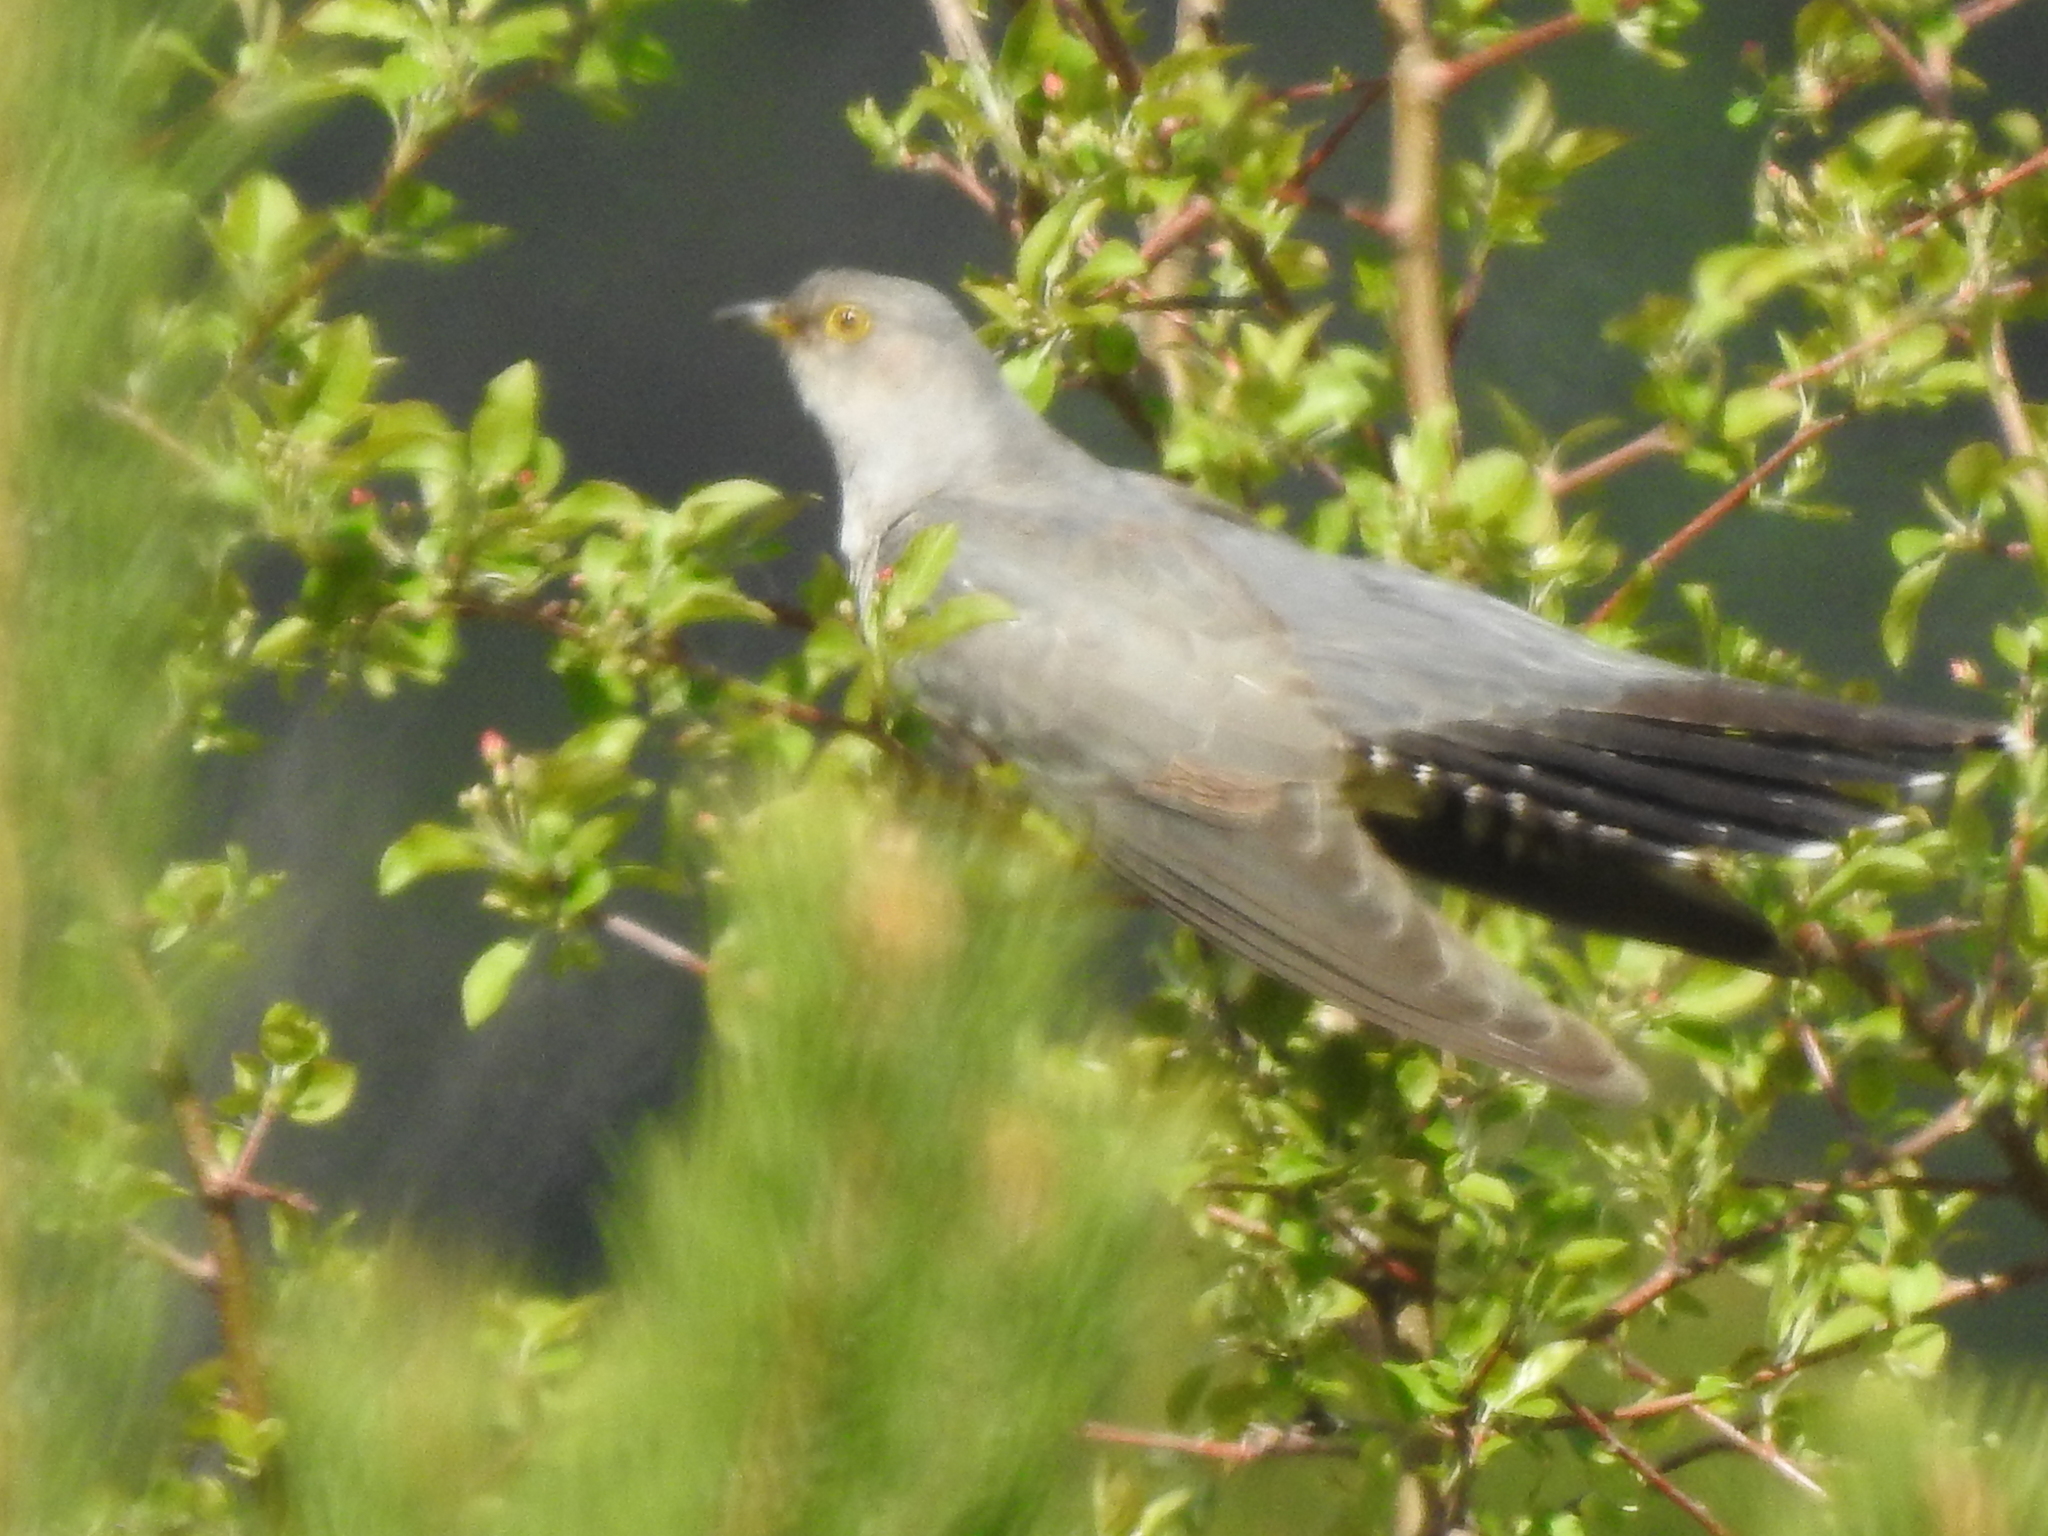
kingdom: Animalia
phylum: Chordata
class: Aves
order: Cuculiformes
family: Cuculidae
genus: Cuculus
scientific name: Cuculus canorus
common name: Common cuckoo
